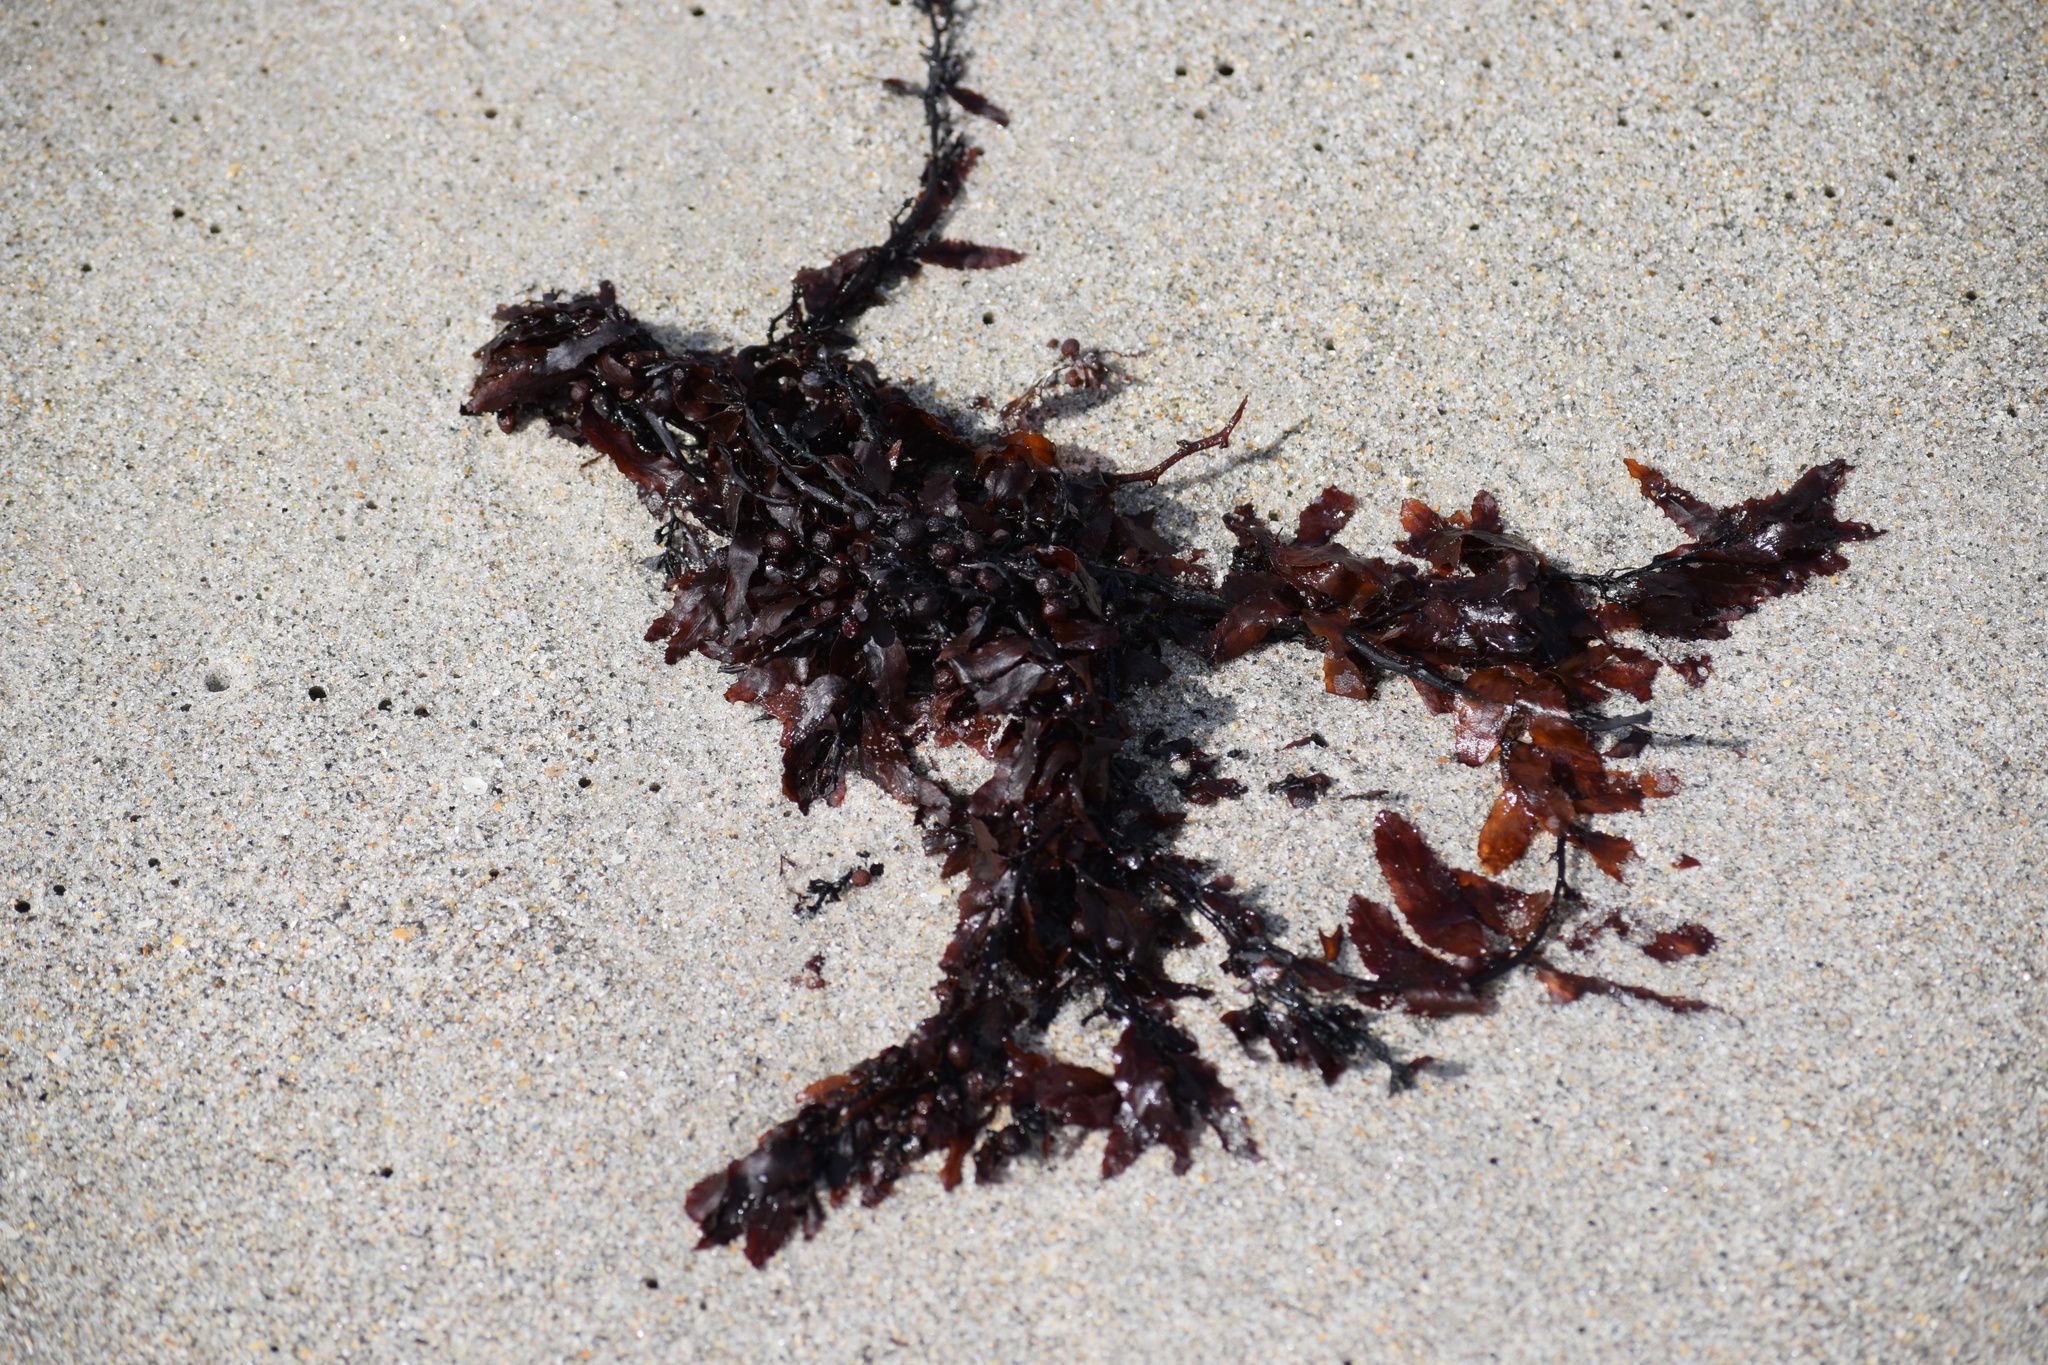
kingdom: Chromista
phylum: Ochrophyta
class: Phaeophyceae
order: Fucales
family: Sargassaceae
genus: Sargassum
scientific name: Sargassum fluitans
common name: Sargassum seaweed
